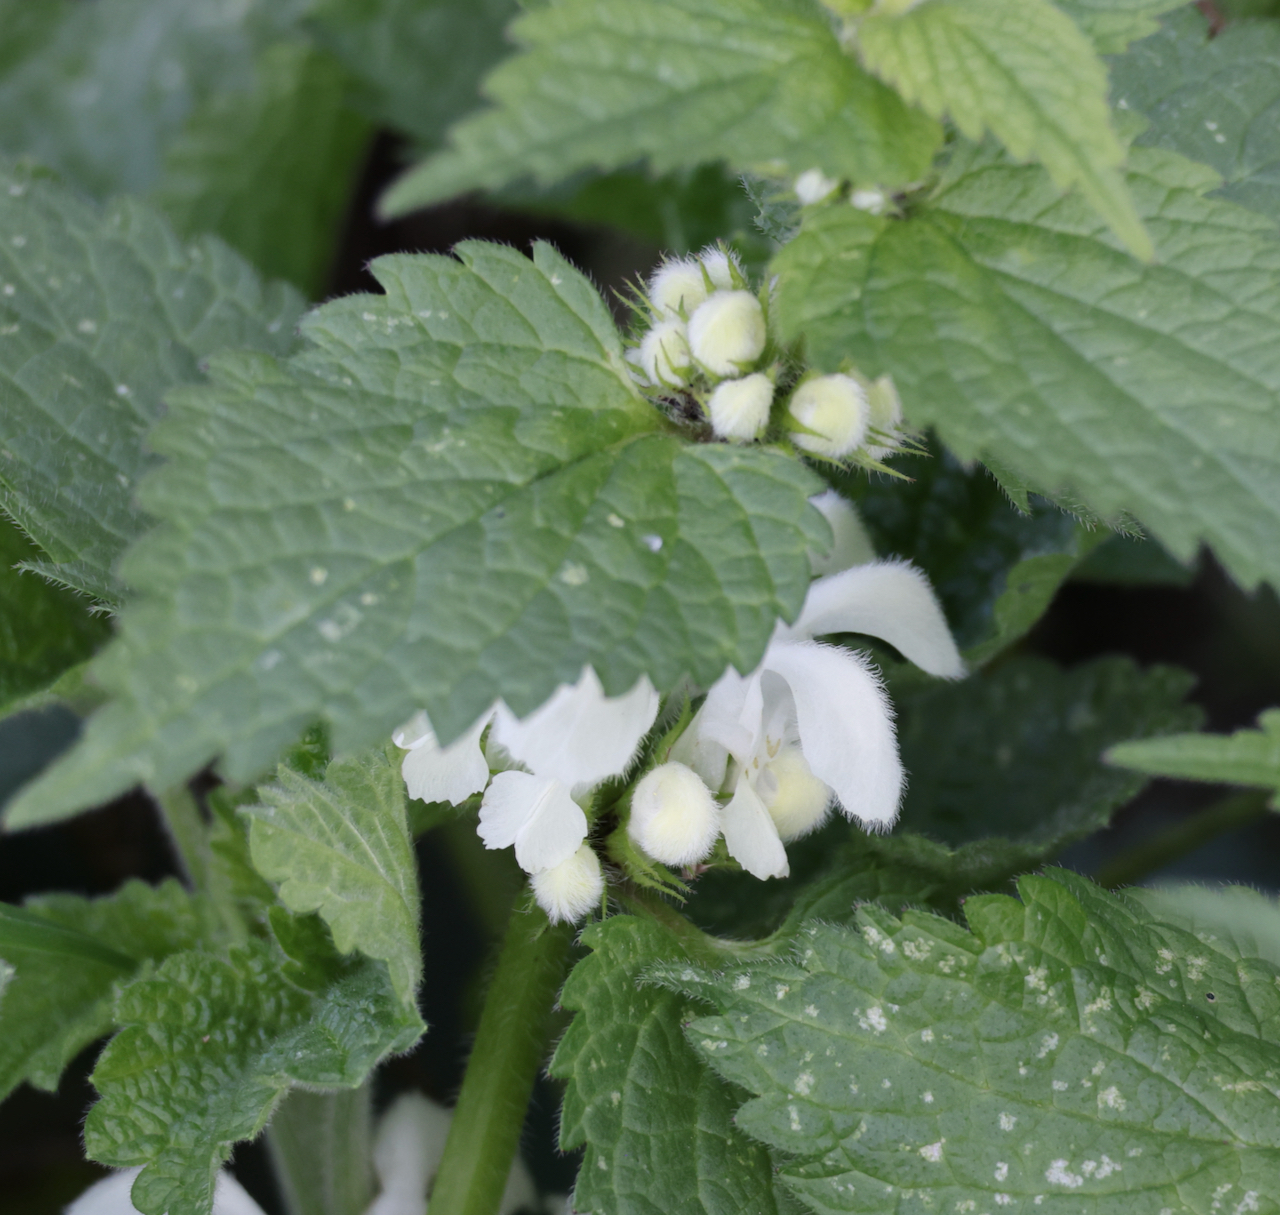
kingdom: Plantae
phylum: Tracheophyta
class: Magnoliopsida
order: Lamiales
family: Lamiaceae
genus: Lamium
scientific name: Lamium album
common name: White dead-nettle
